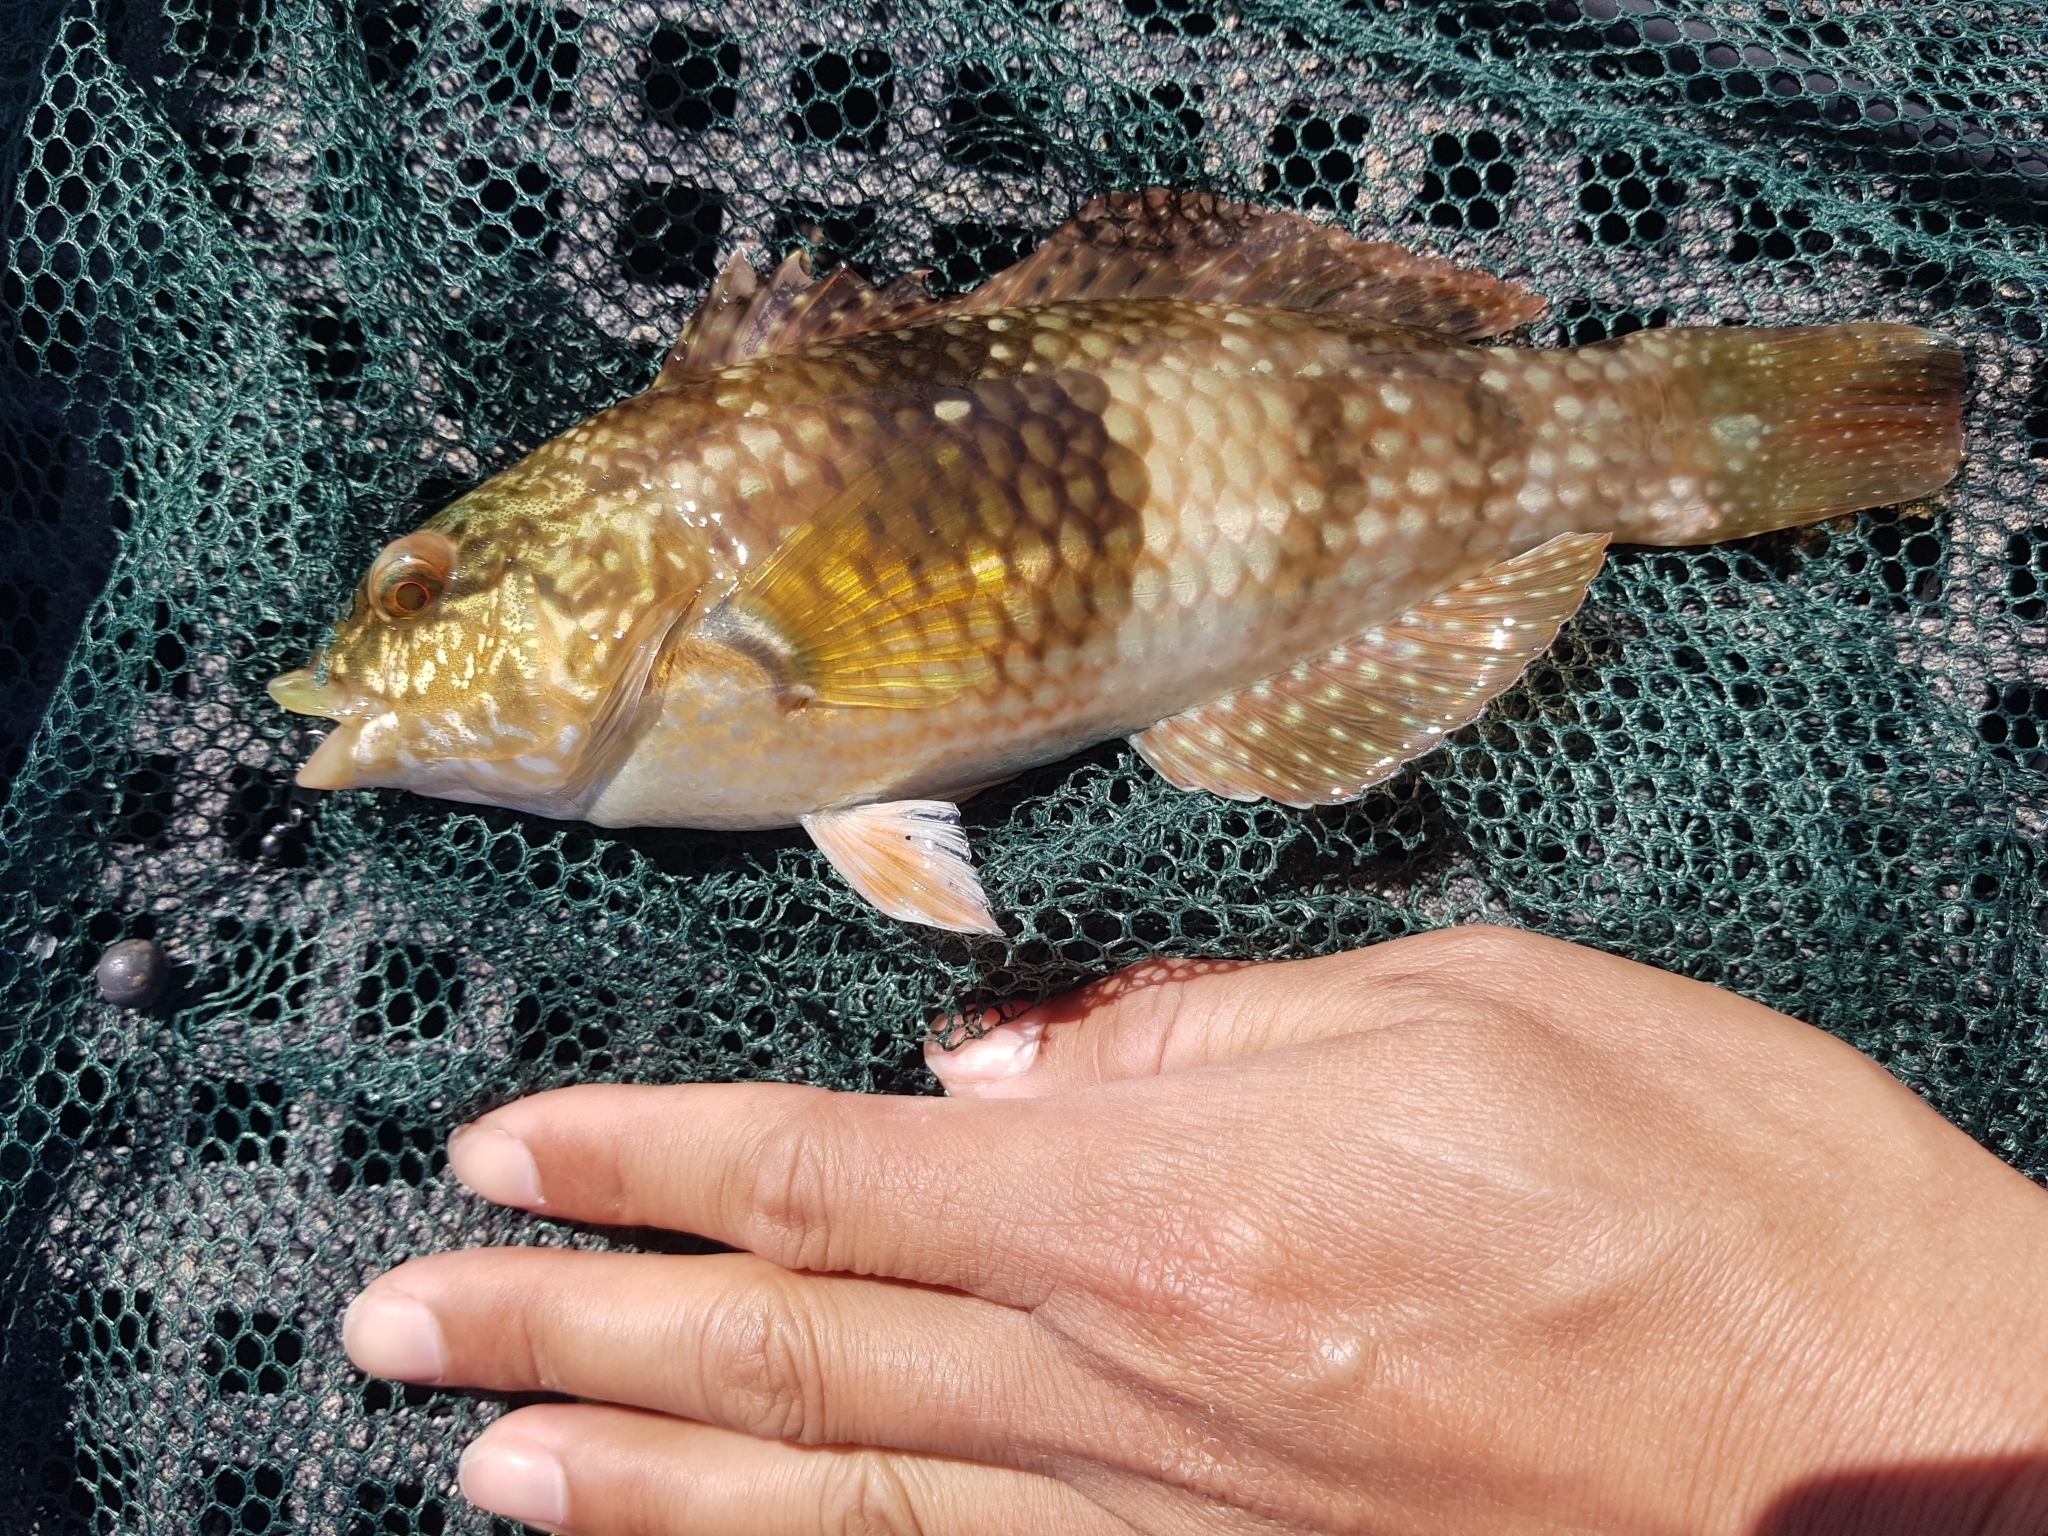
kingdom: Animalia
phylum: Chordata
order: Perciformes
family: Labridae
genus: Notolabrus
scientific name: Notolabrus tetricus
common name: Blue-throated parrotfish
